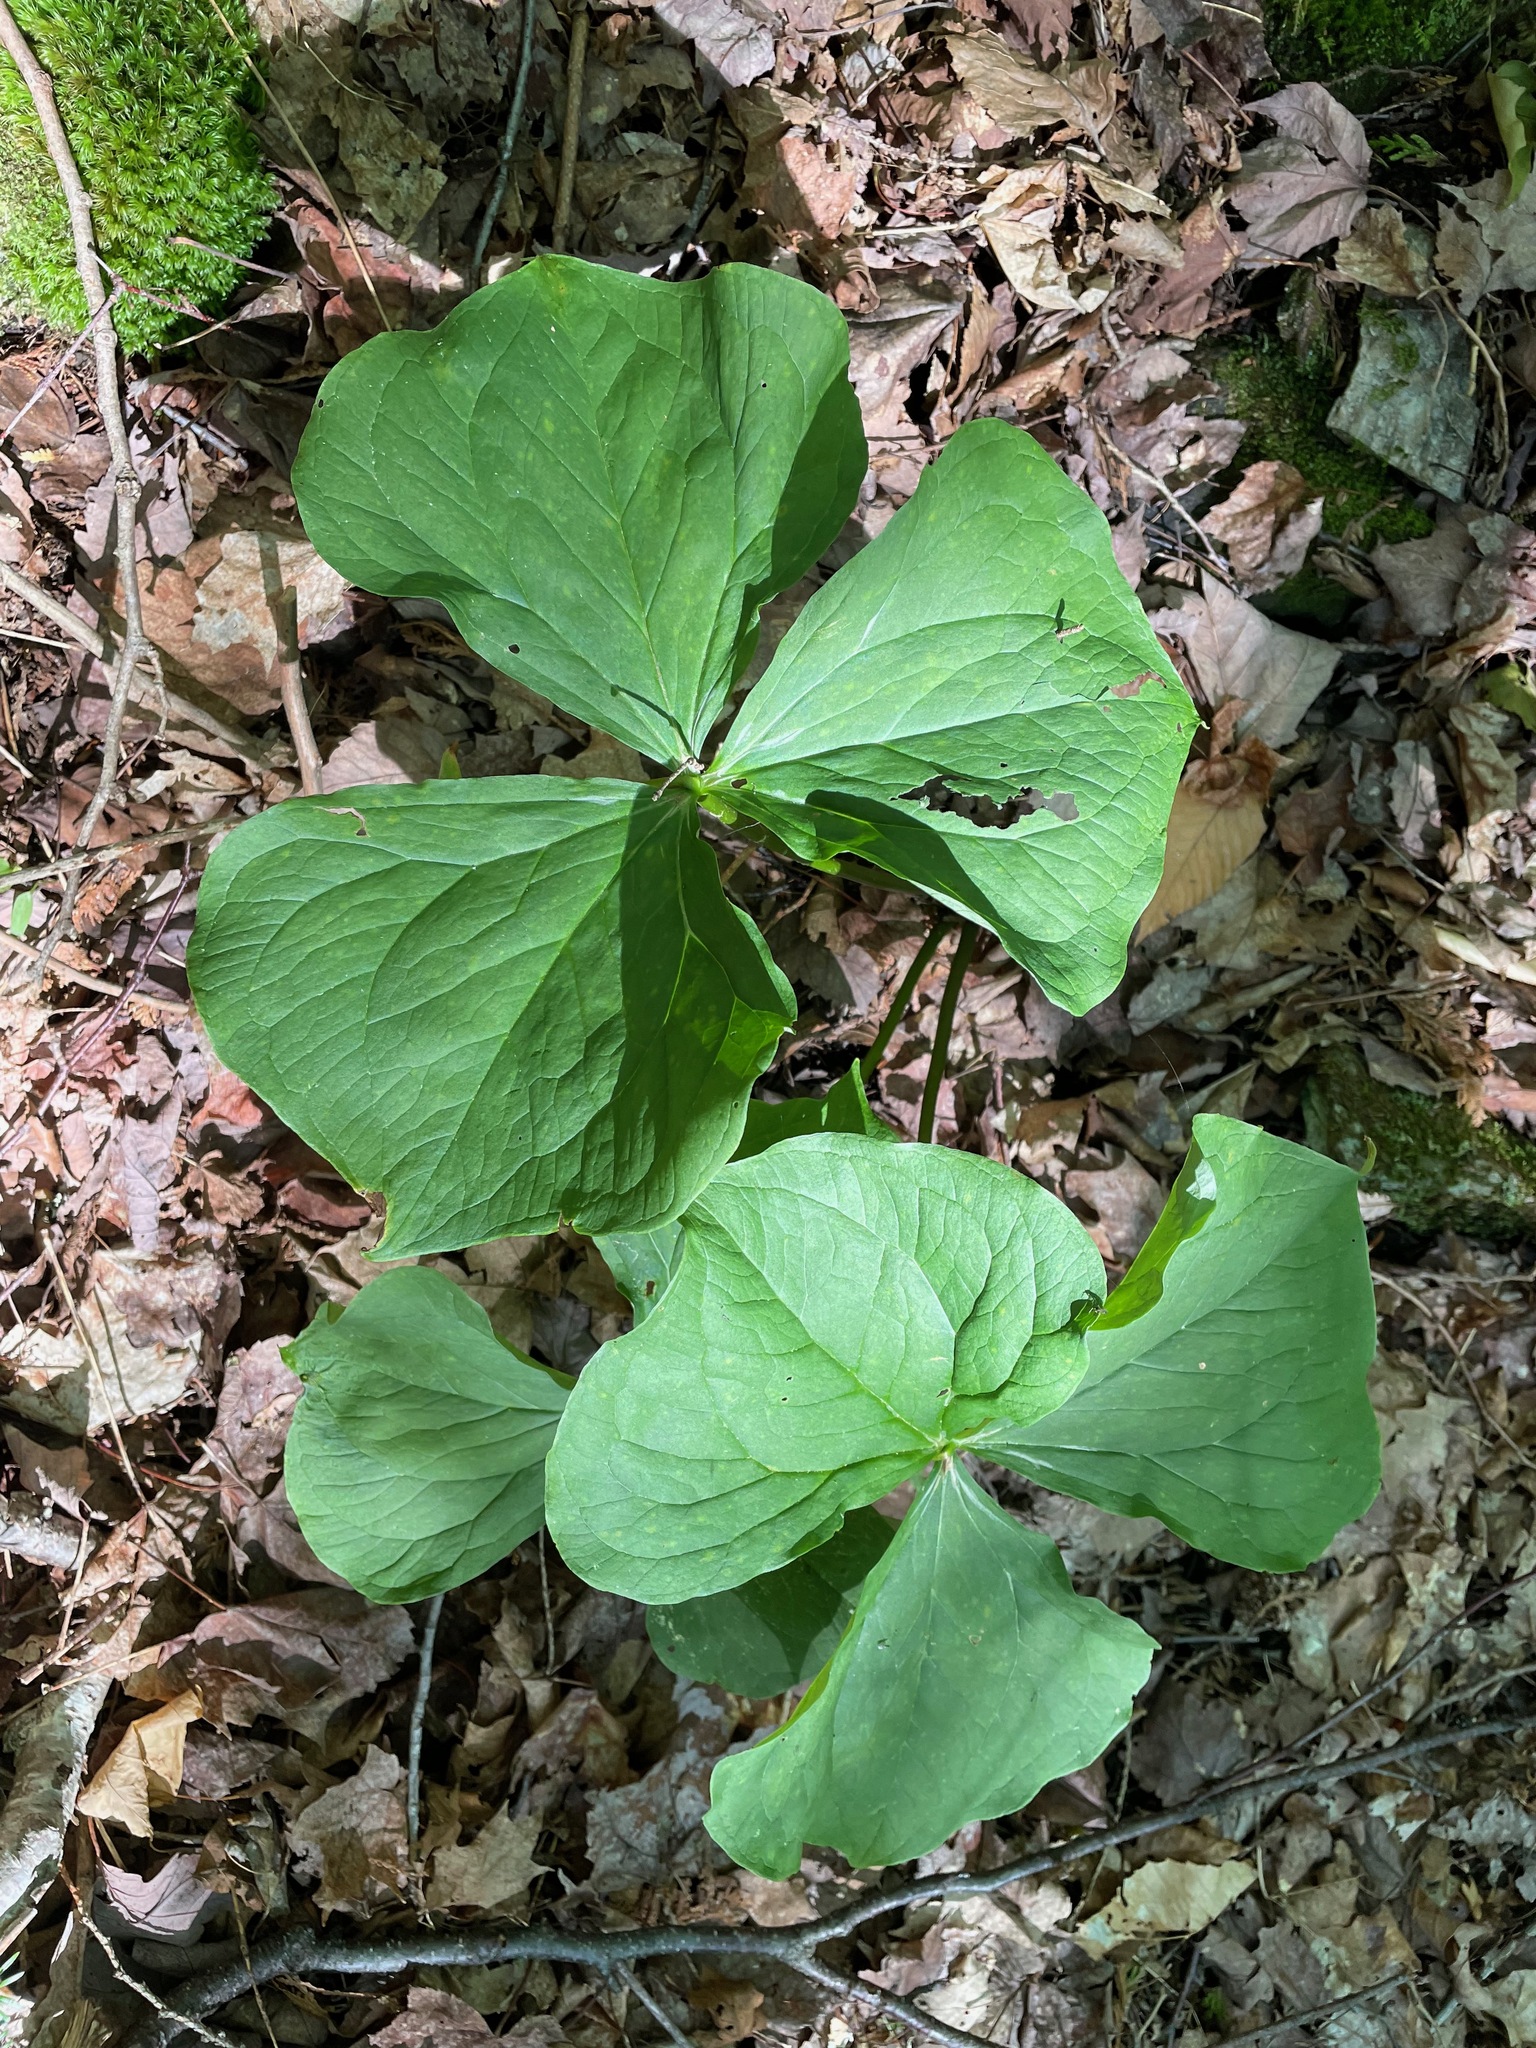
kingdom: Plantae
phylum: Tracheophyta
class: Liliopsida
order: Liliales
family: Melanthiaceae
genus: Trillium
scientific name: Trillium erectum
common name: Purple trillium
